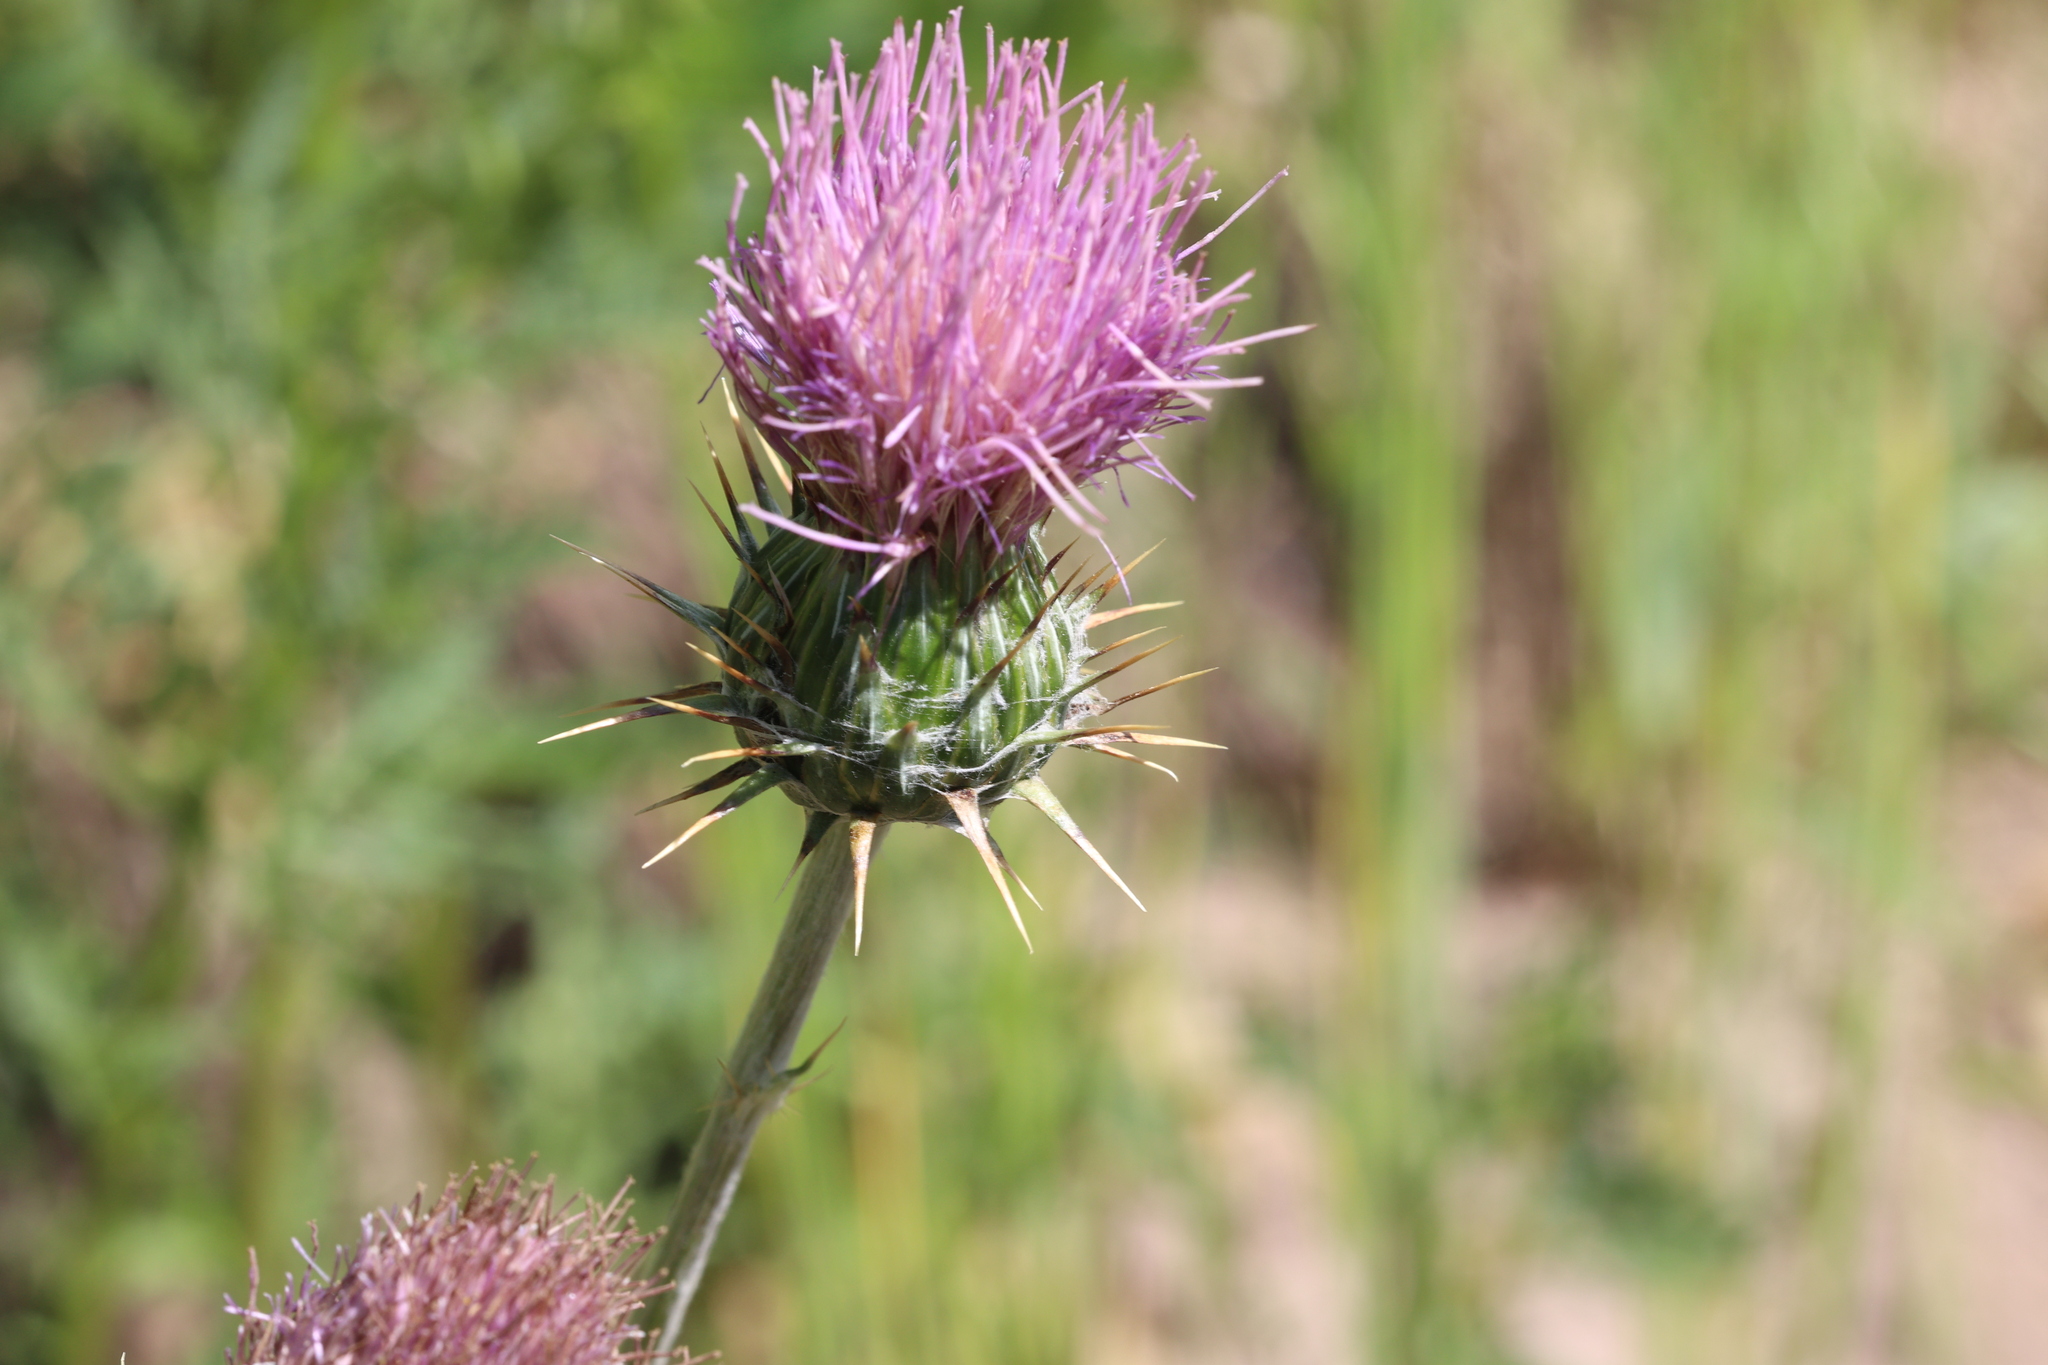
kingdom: Plantae
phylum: Tracheophyta
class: Magnoliopsida
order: Asterales
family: Asteraceae
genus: Cirsium
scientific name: Cirsium neomexicanum
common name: New mexico thistle
